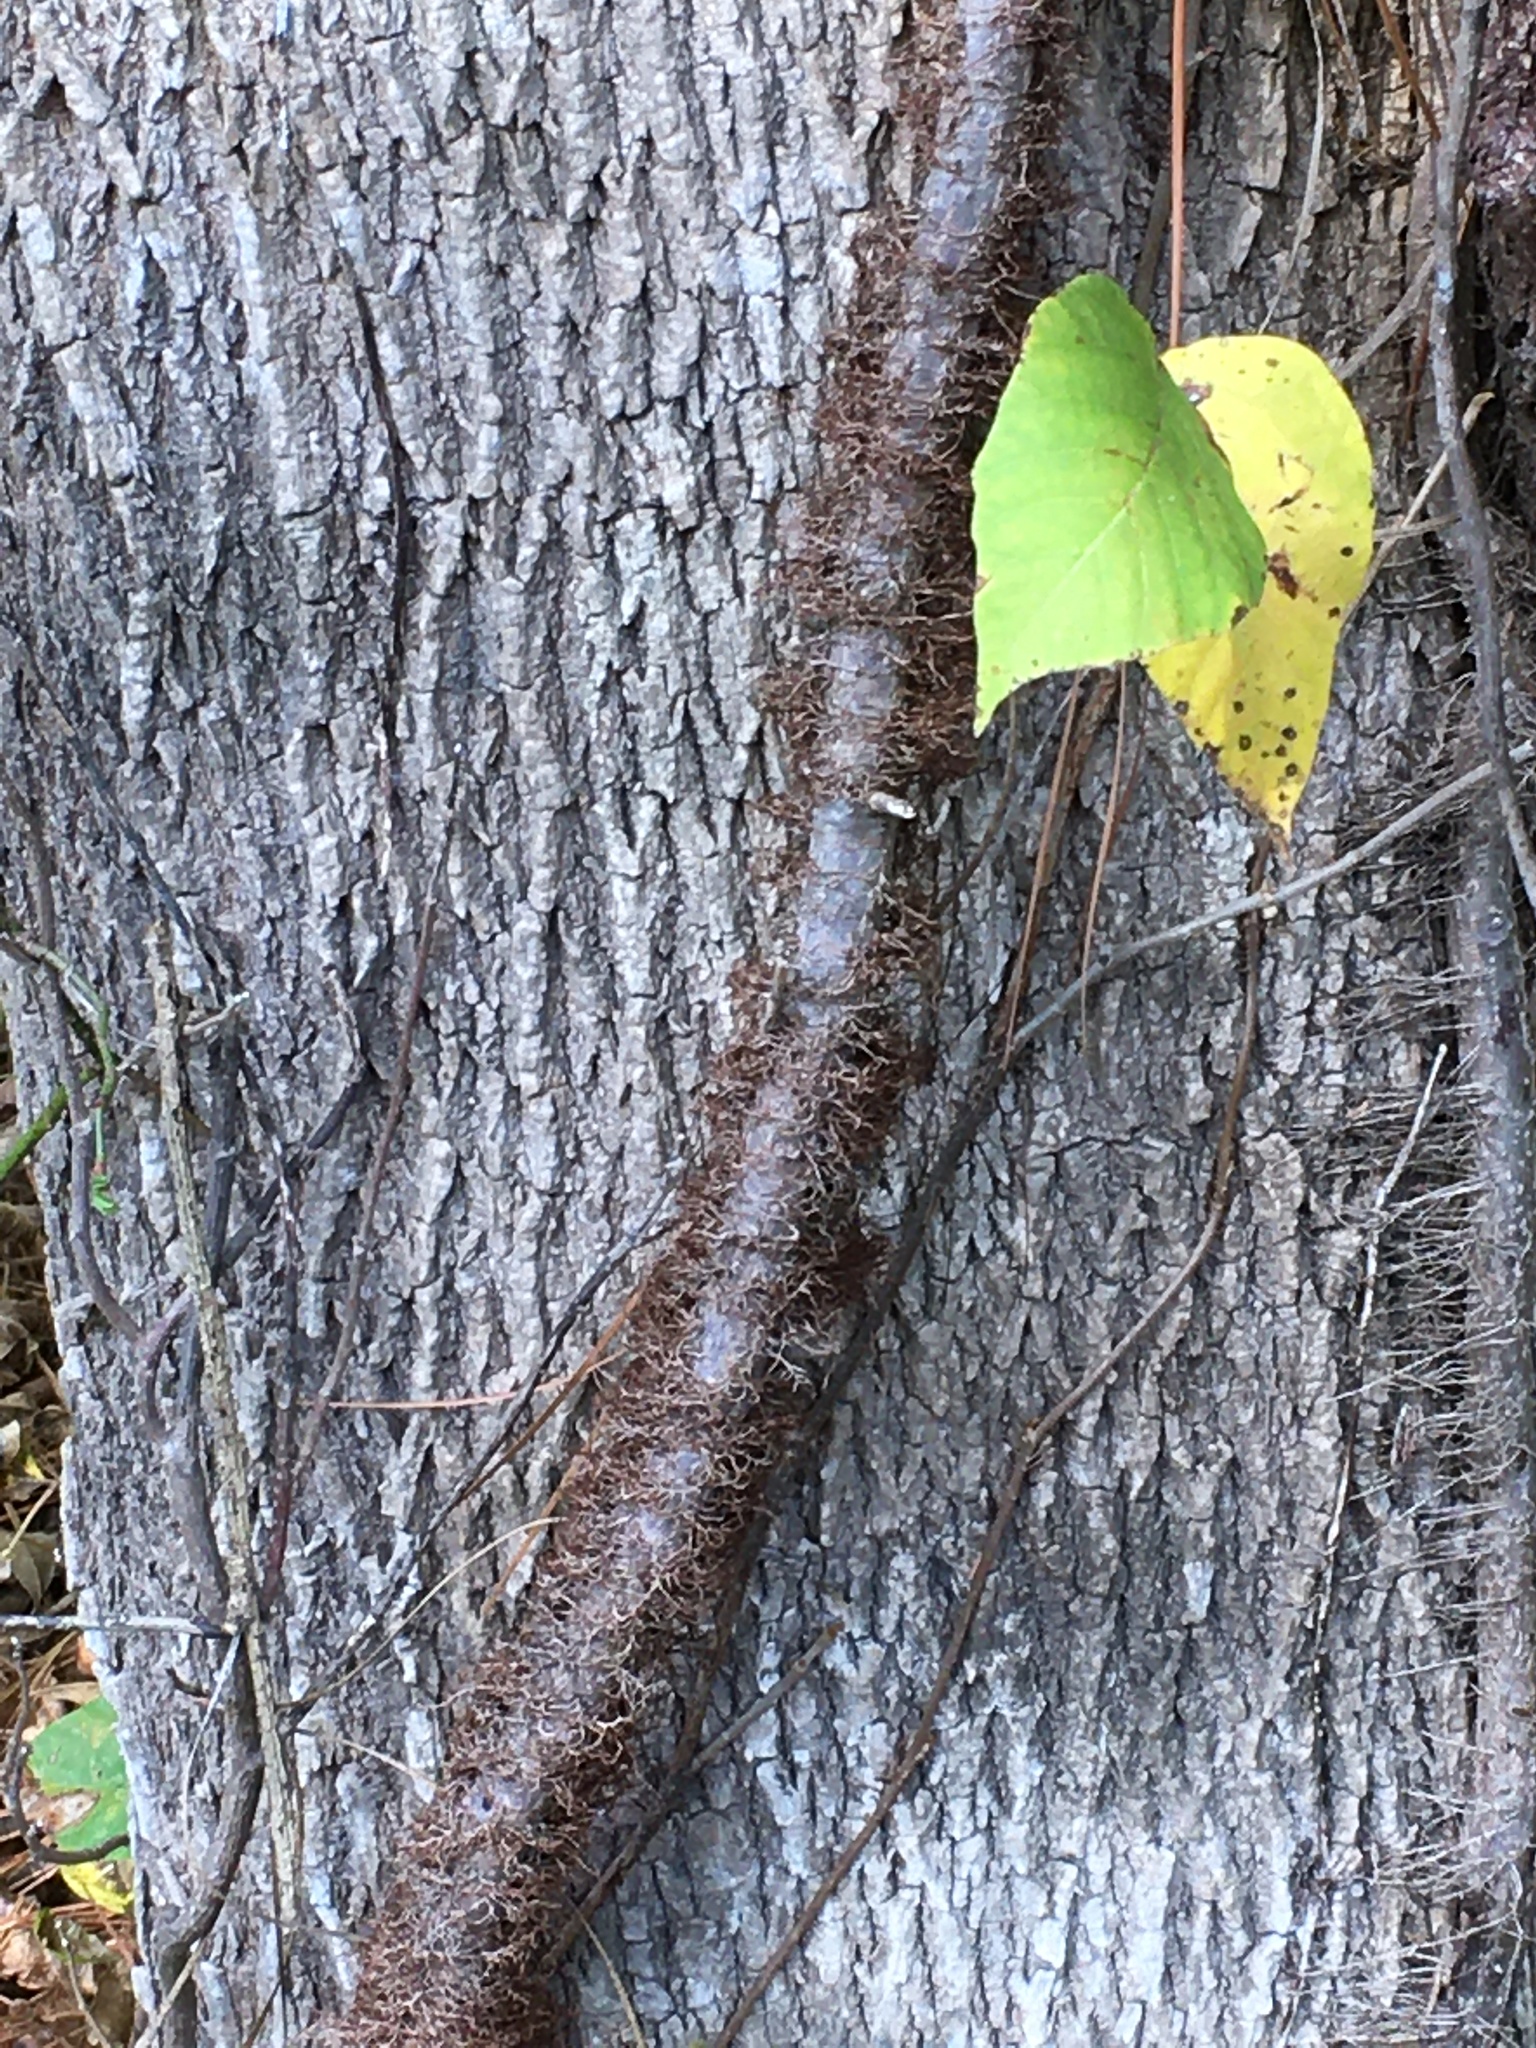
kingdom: Plantae
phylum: Tracheophyta
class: Magnoliopsida
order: Sapindales
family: Anacardiaceae
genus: Toxicodendron
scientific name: Toxicodendron radicans
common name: Poison ivy
